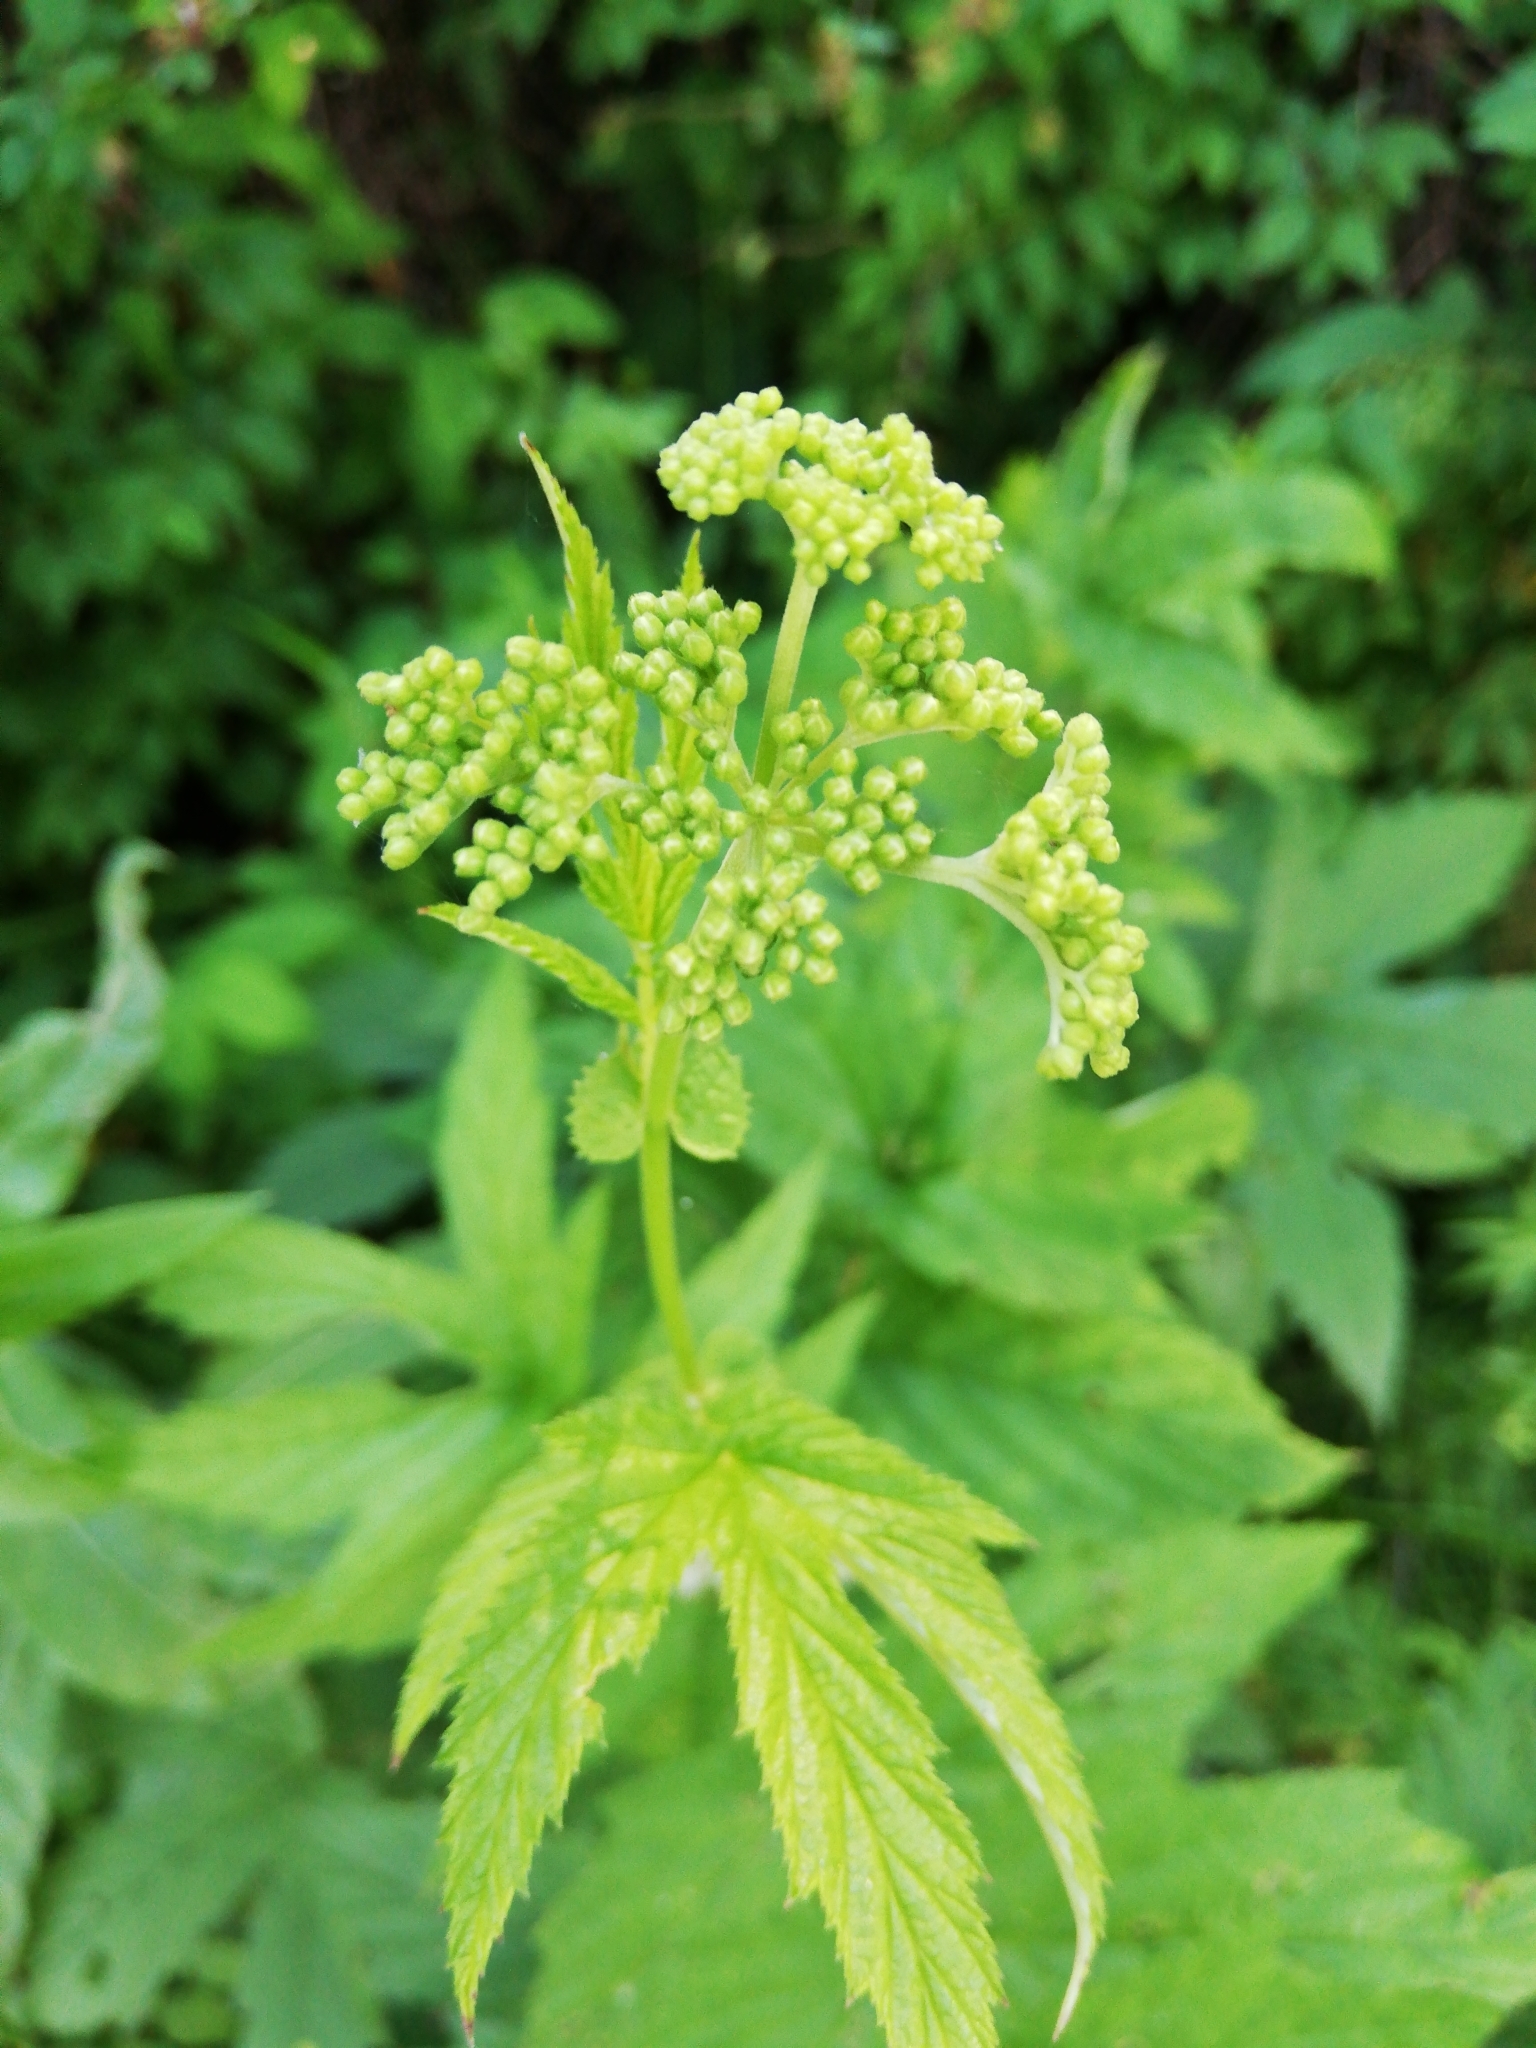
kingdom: Plantae
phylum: Tracheophyta
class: Magnoliopsida
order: Rosales
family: Rosaceae
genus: Filipendula
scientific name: Filipendula ulmaria
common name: Meadowsweet
